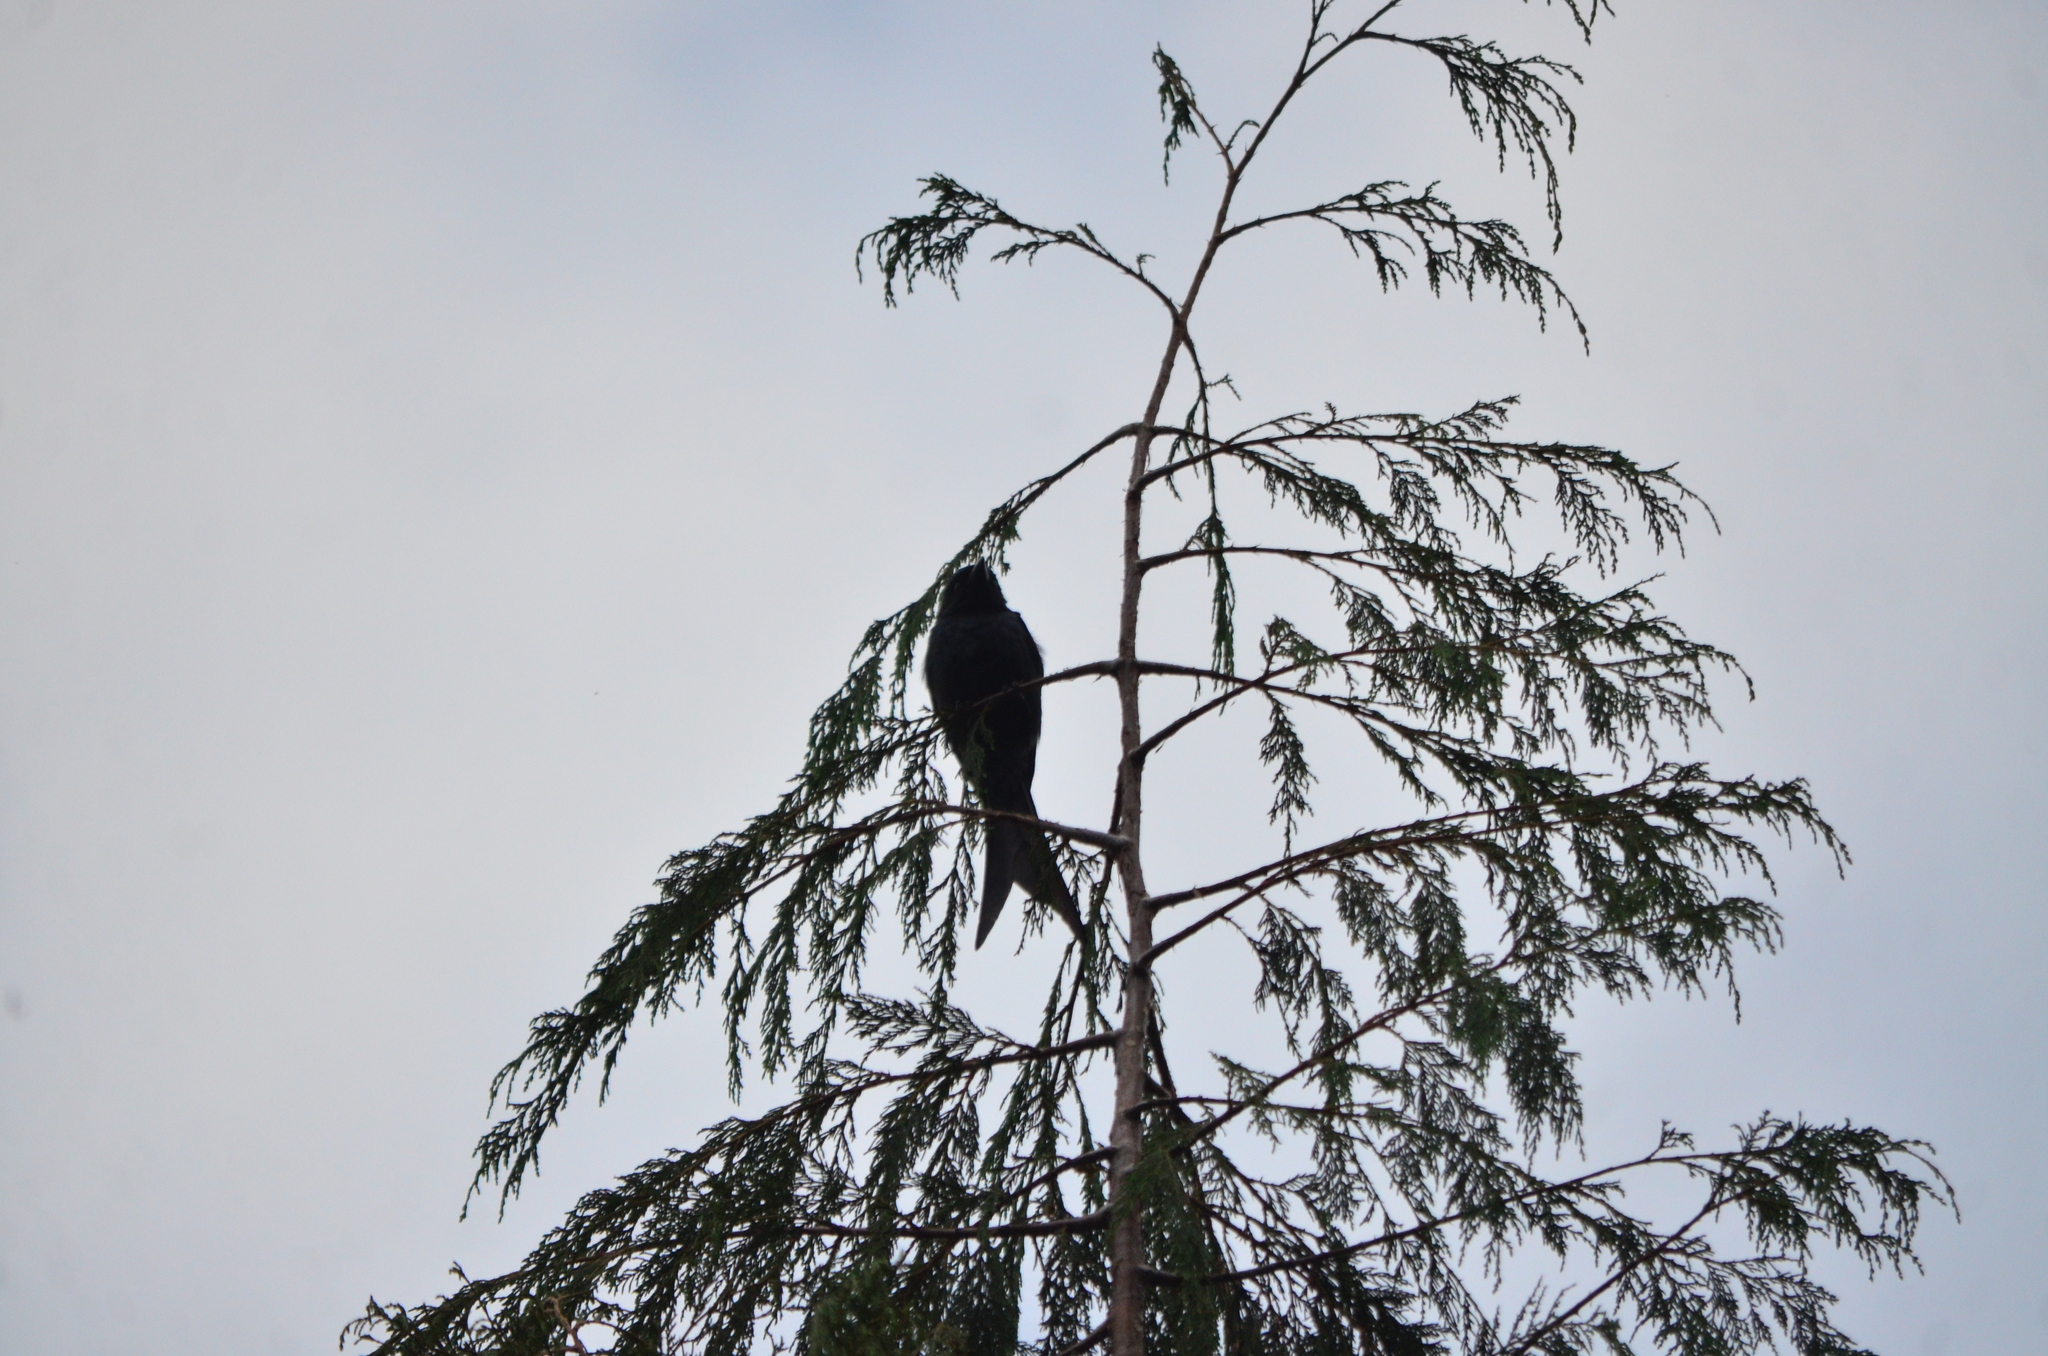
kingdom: Animalia
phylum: Chordata
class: Aves
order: Passeriformes
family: Dicruridae
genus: Dicrurus
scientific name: Dicrurus macrocercus
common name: Black drongo
